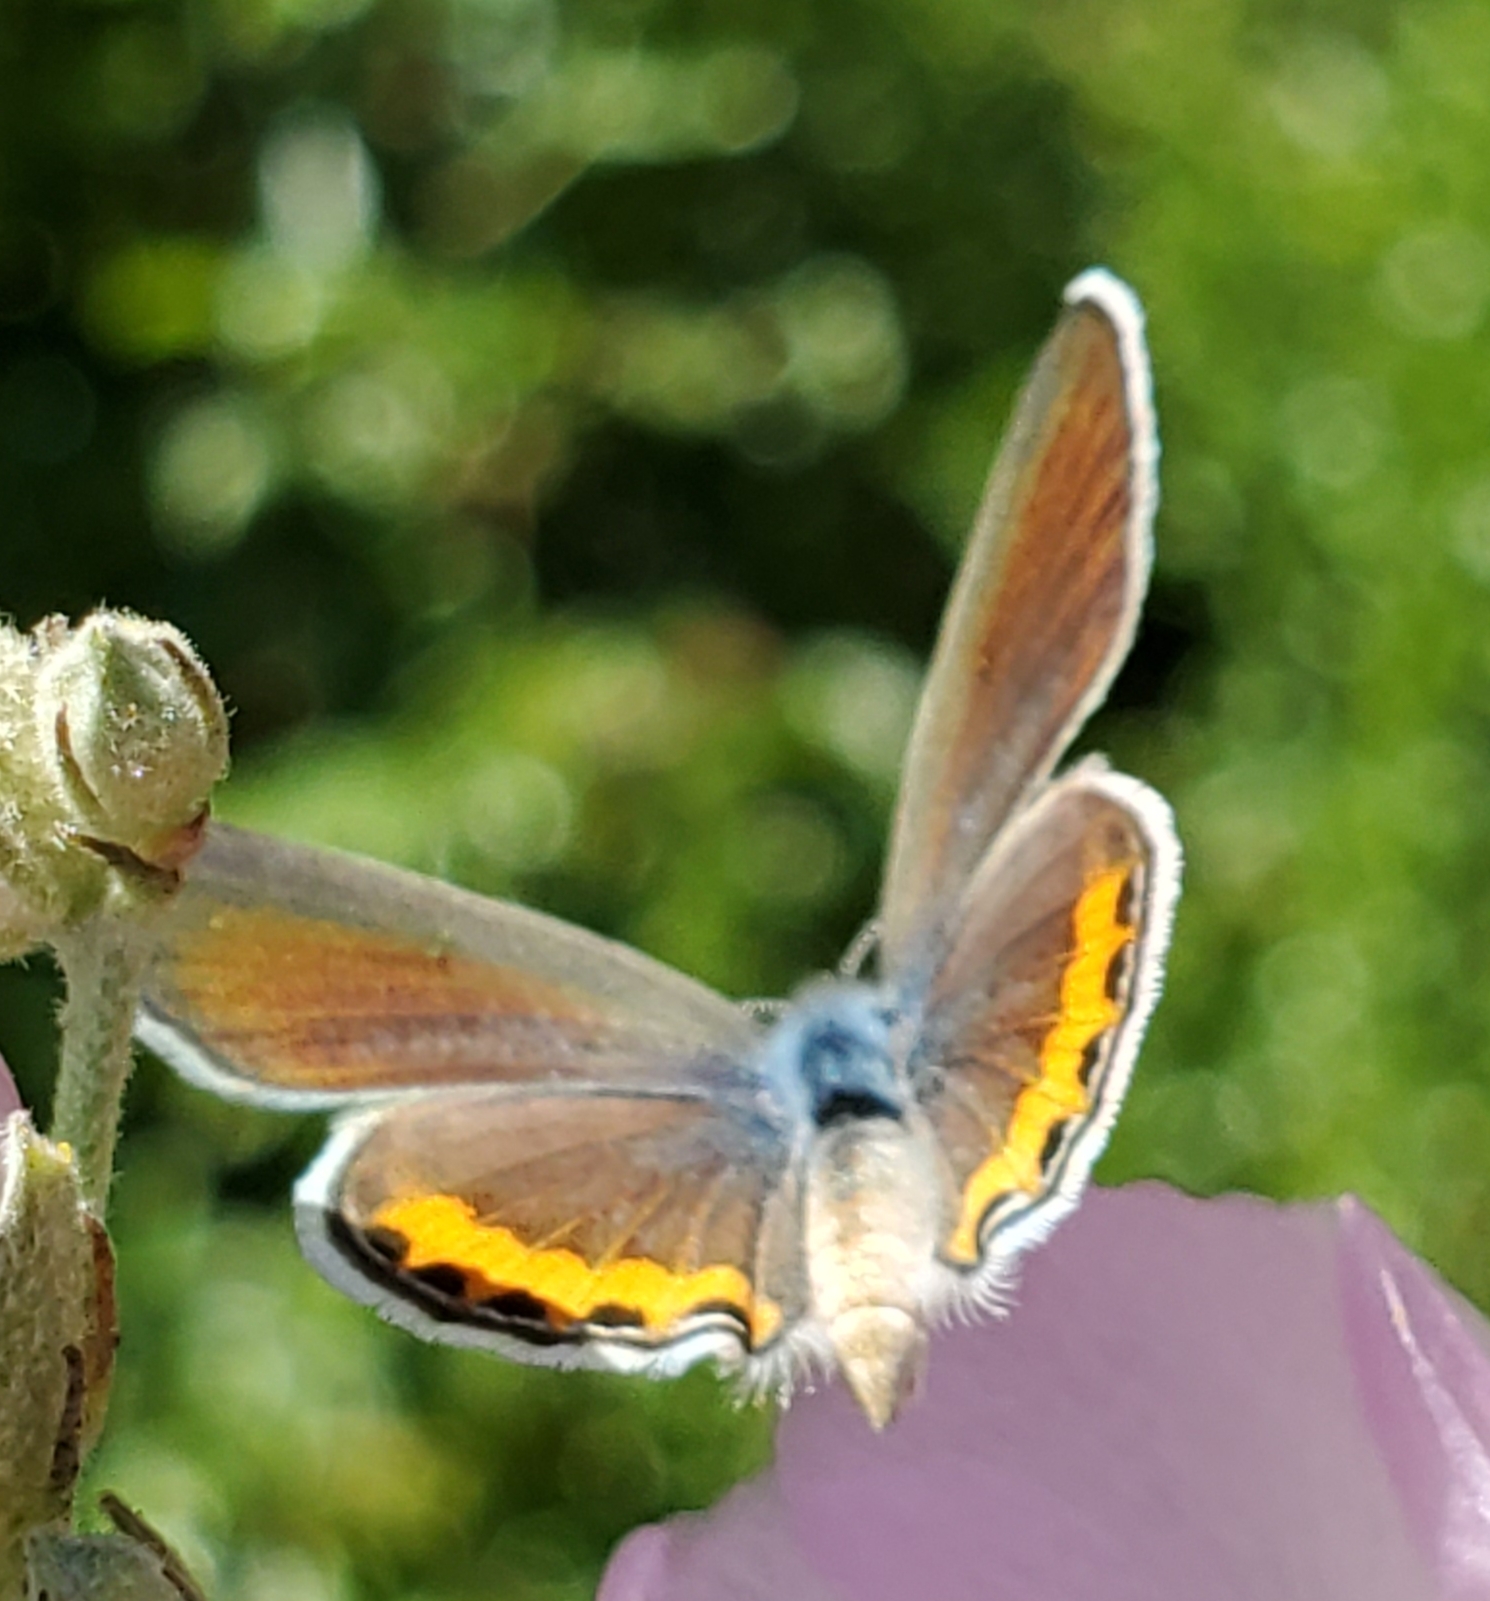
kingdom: Animalia
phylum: Arthropoda
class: Insecta
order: Lepidoptera
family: Lycaenidae
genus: Icaricia
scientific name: Icaricia acmon
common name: Acmon blue
